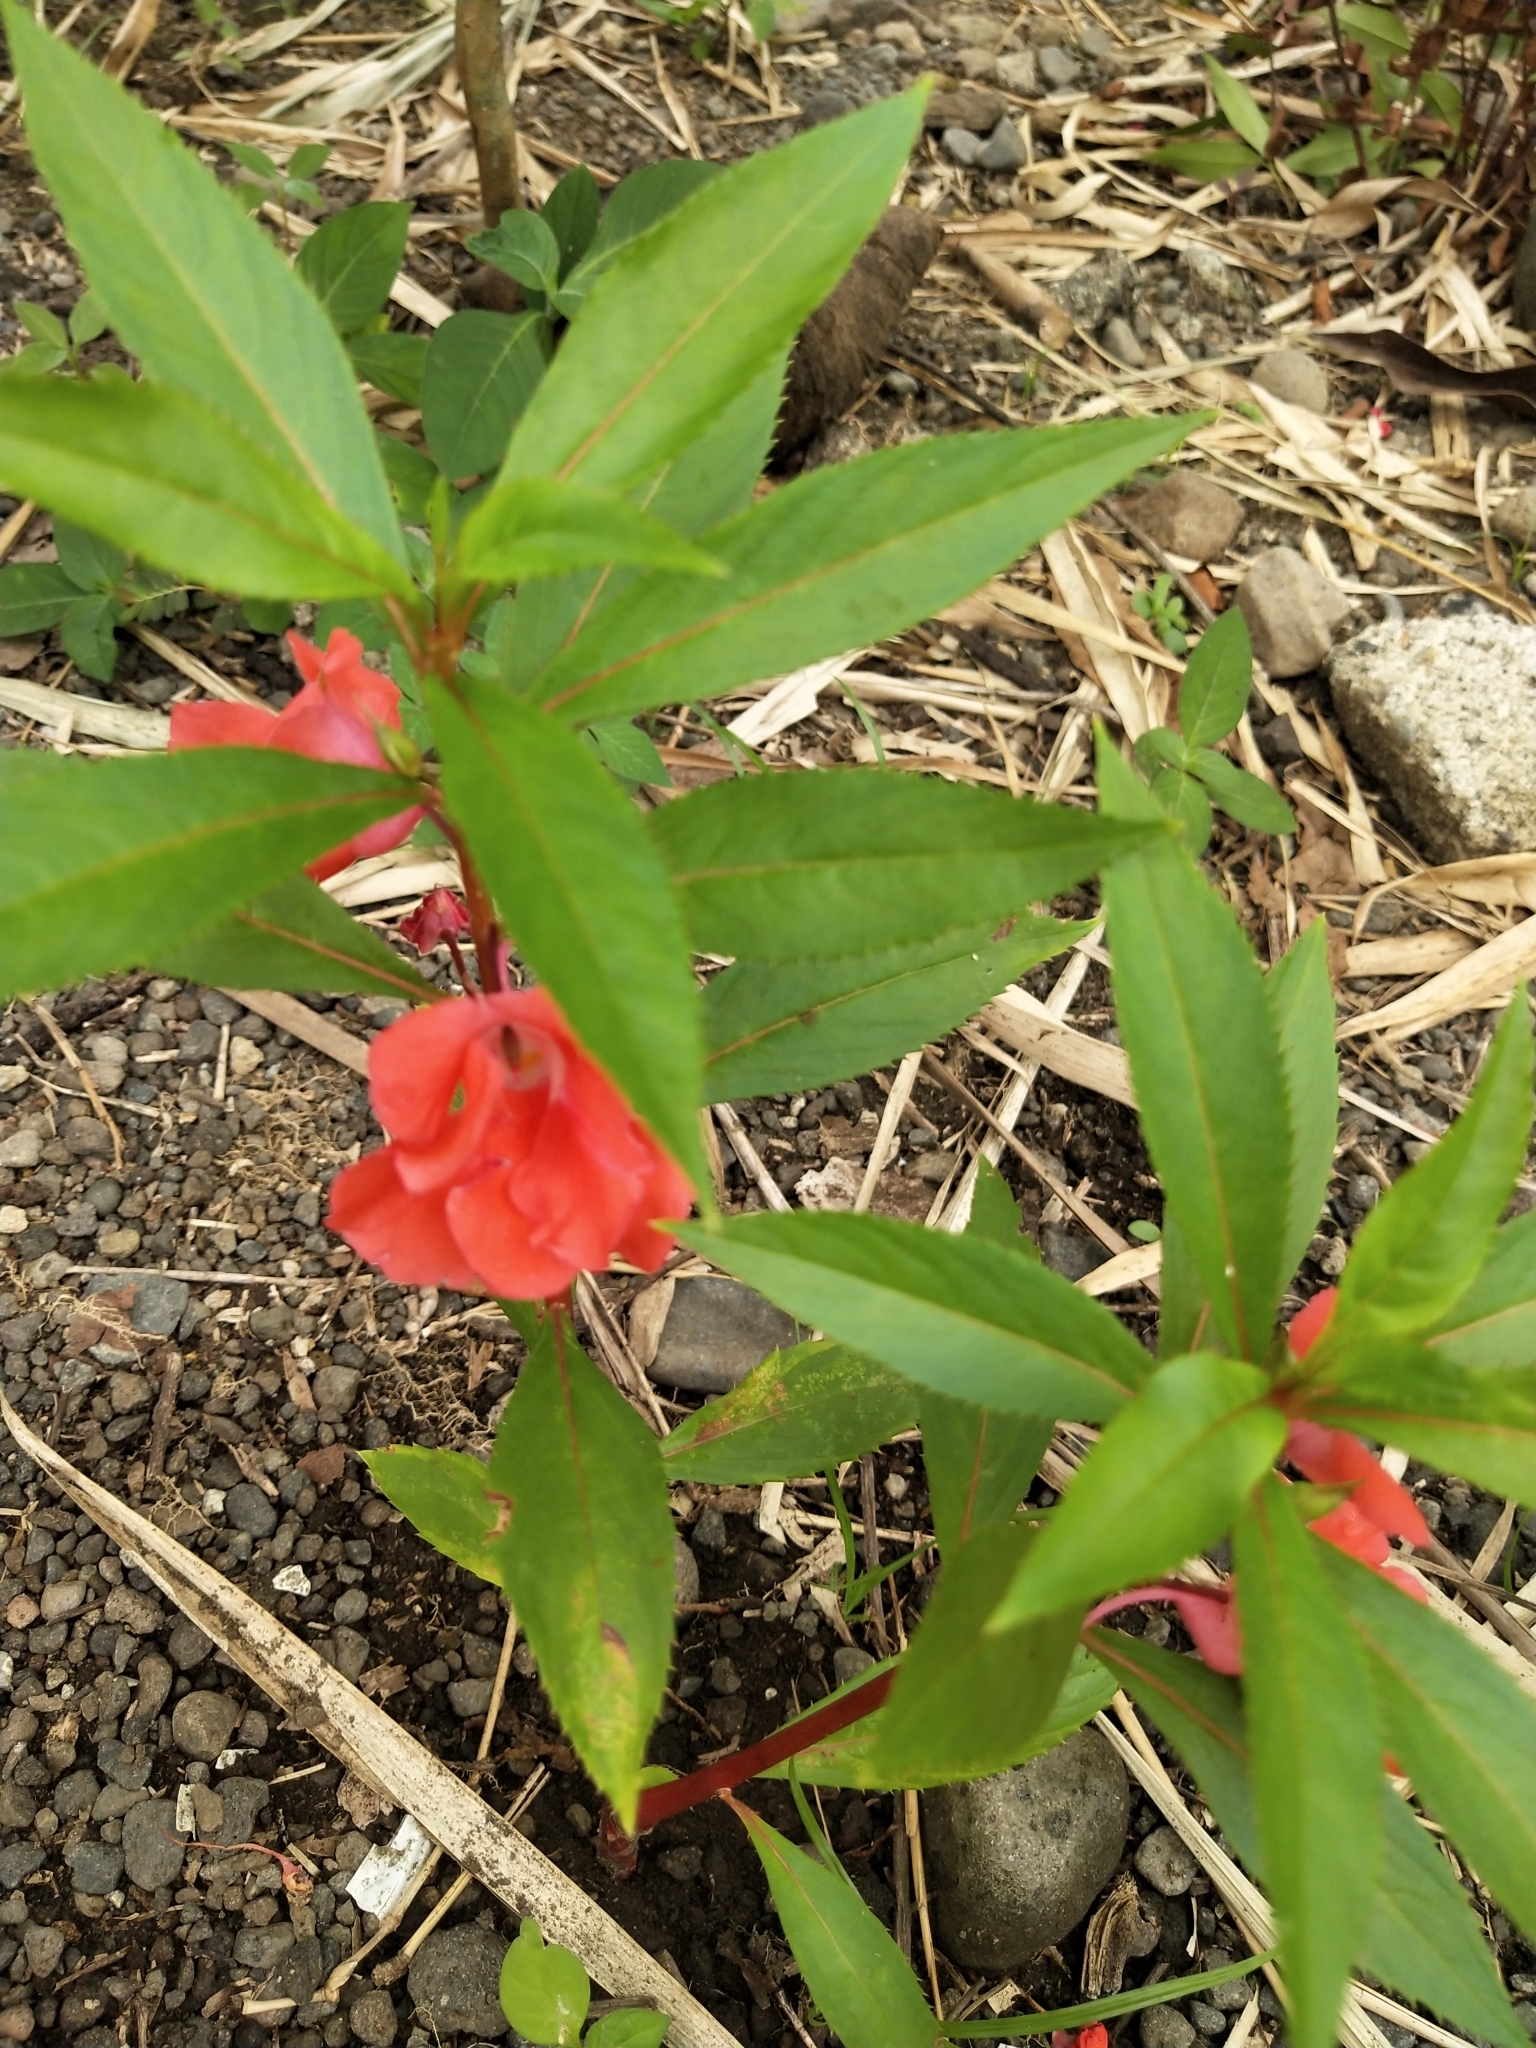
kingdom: Plantae
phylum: Tracheophyta
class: Magnoliopsida
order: Ericales
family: Balsaminaceae
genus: Impatiens
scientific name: Impatiens balsamina
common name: Balsam
